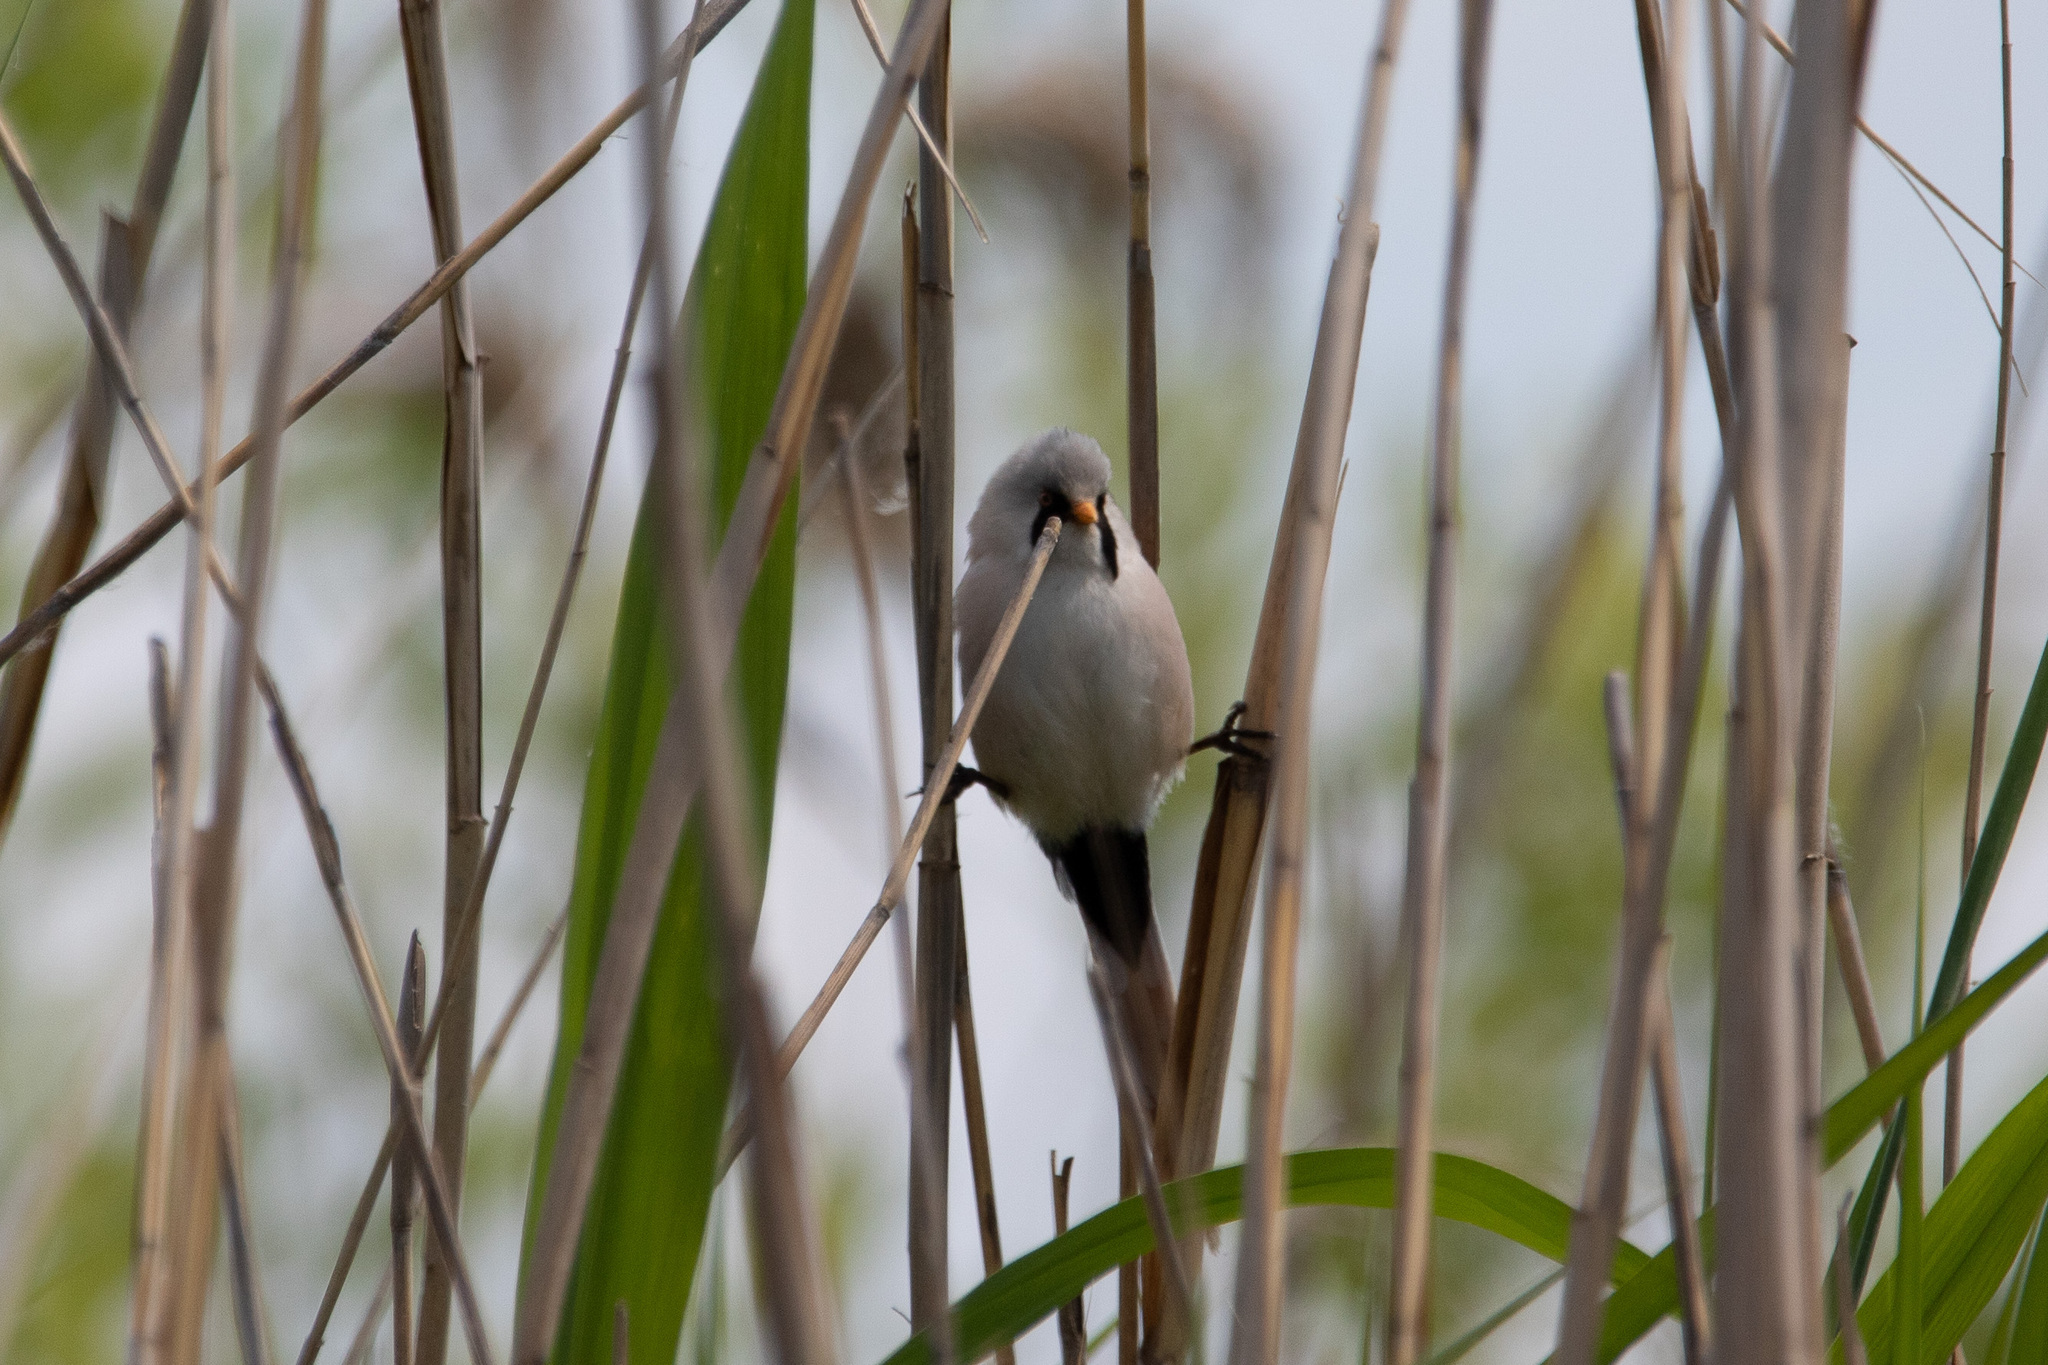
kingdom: Animalia
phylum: Chordata
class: Aves
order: Passeriformes
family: Panuridae
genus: Panurus
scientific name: Panurus biarmicus
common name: Bearded reedling
